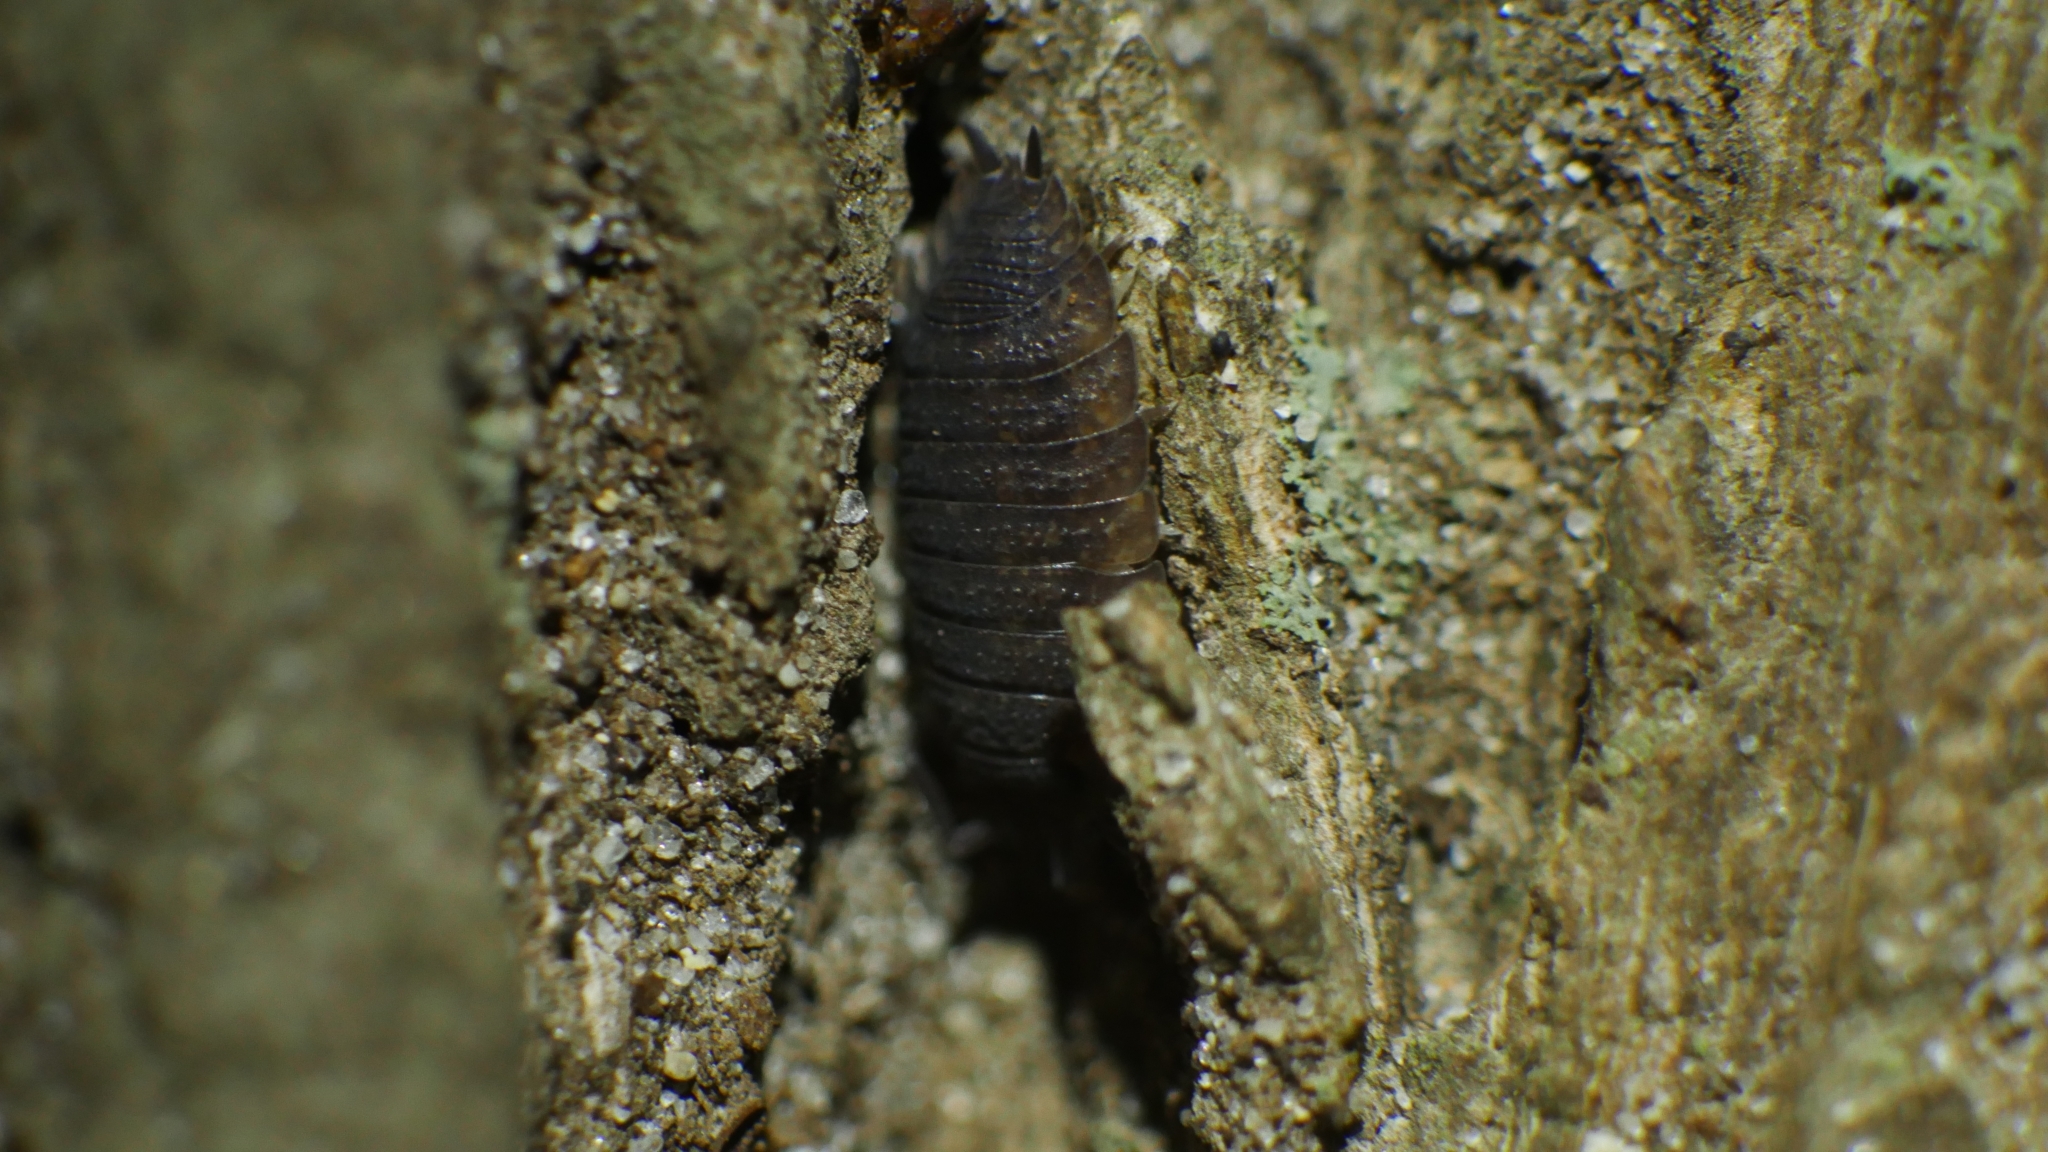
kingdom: Animalia
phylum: Arthropoda
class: Malacostraca
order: Isopoda
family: Porcellionidae
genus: Porcellio
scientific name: Porcellio scaber
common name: Common rough woodlouse
